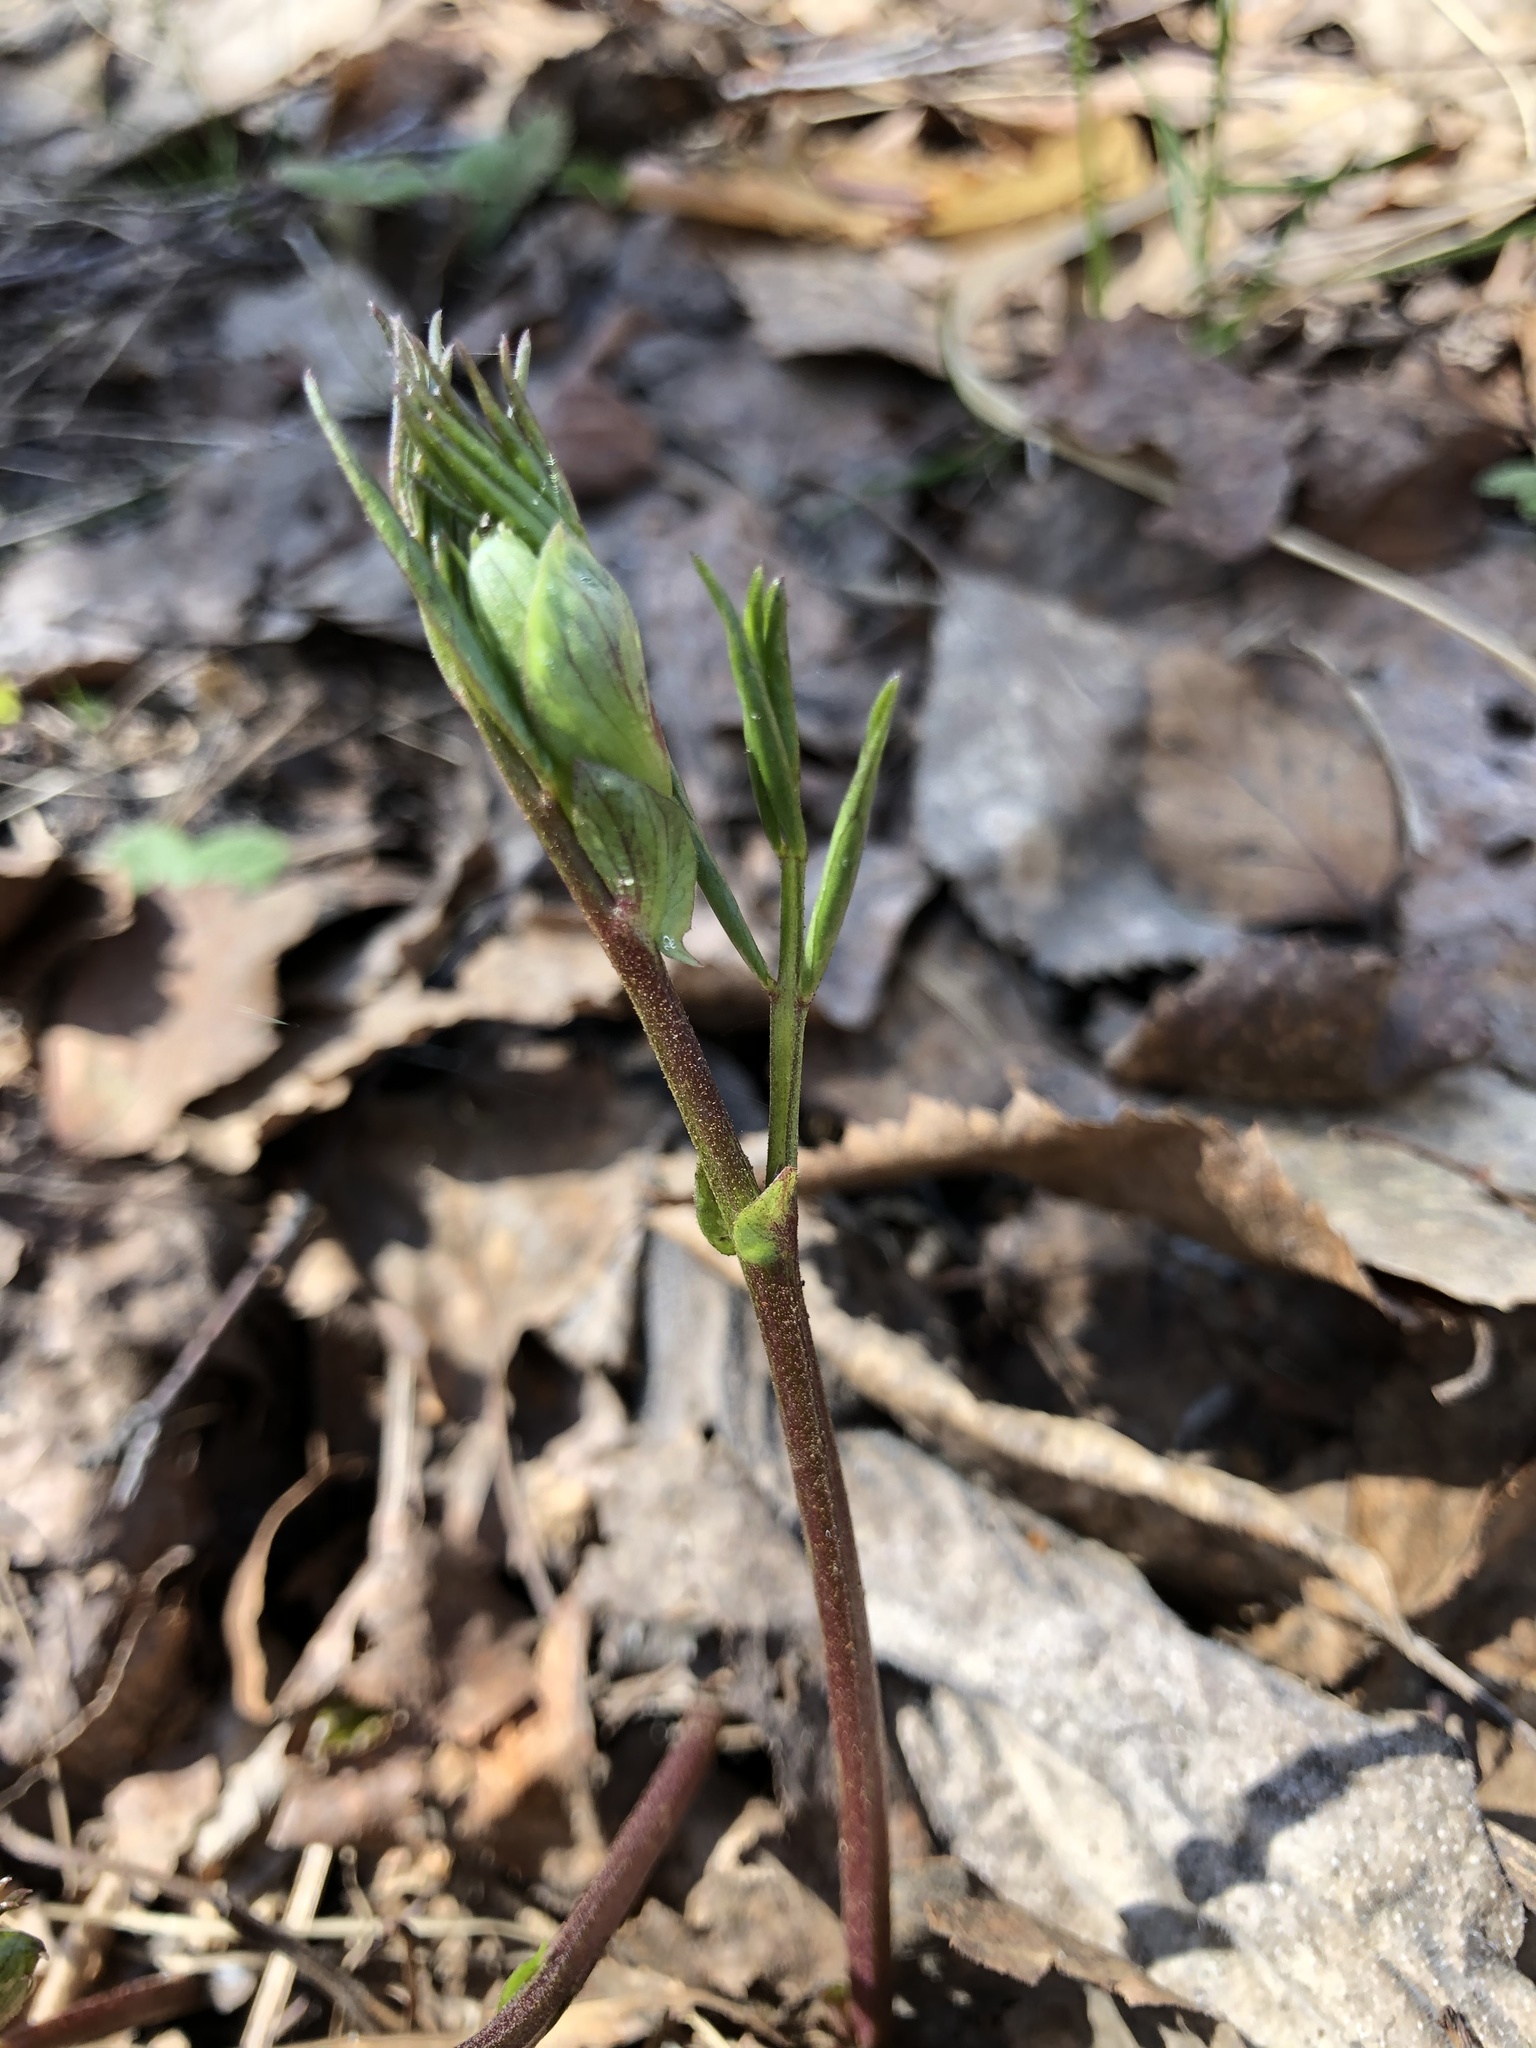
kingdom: Plantae
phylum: Tracheophyta
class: Magnoliopsida
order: Fabales
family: Fabaceae
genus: Lathyrus
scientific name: Lathyrus vernus
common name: Spring pea
